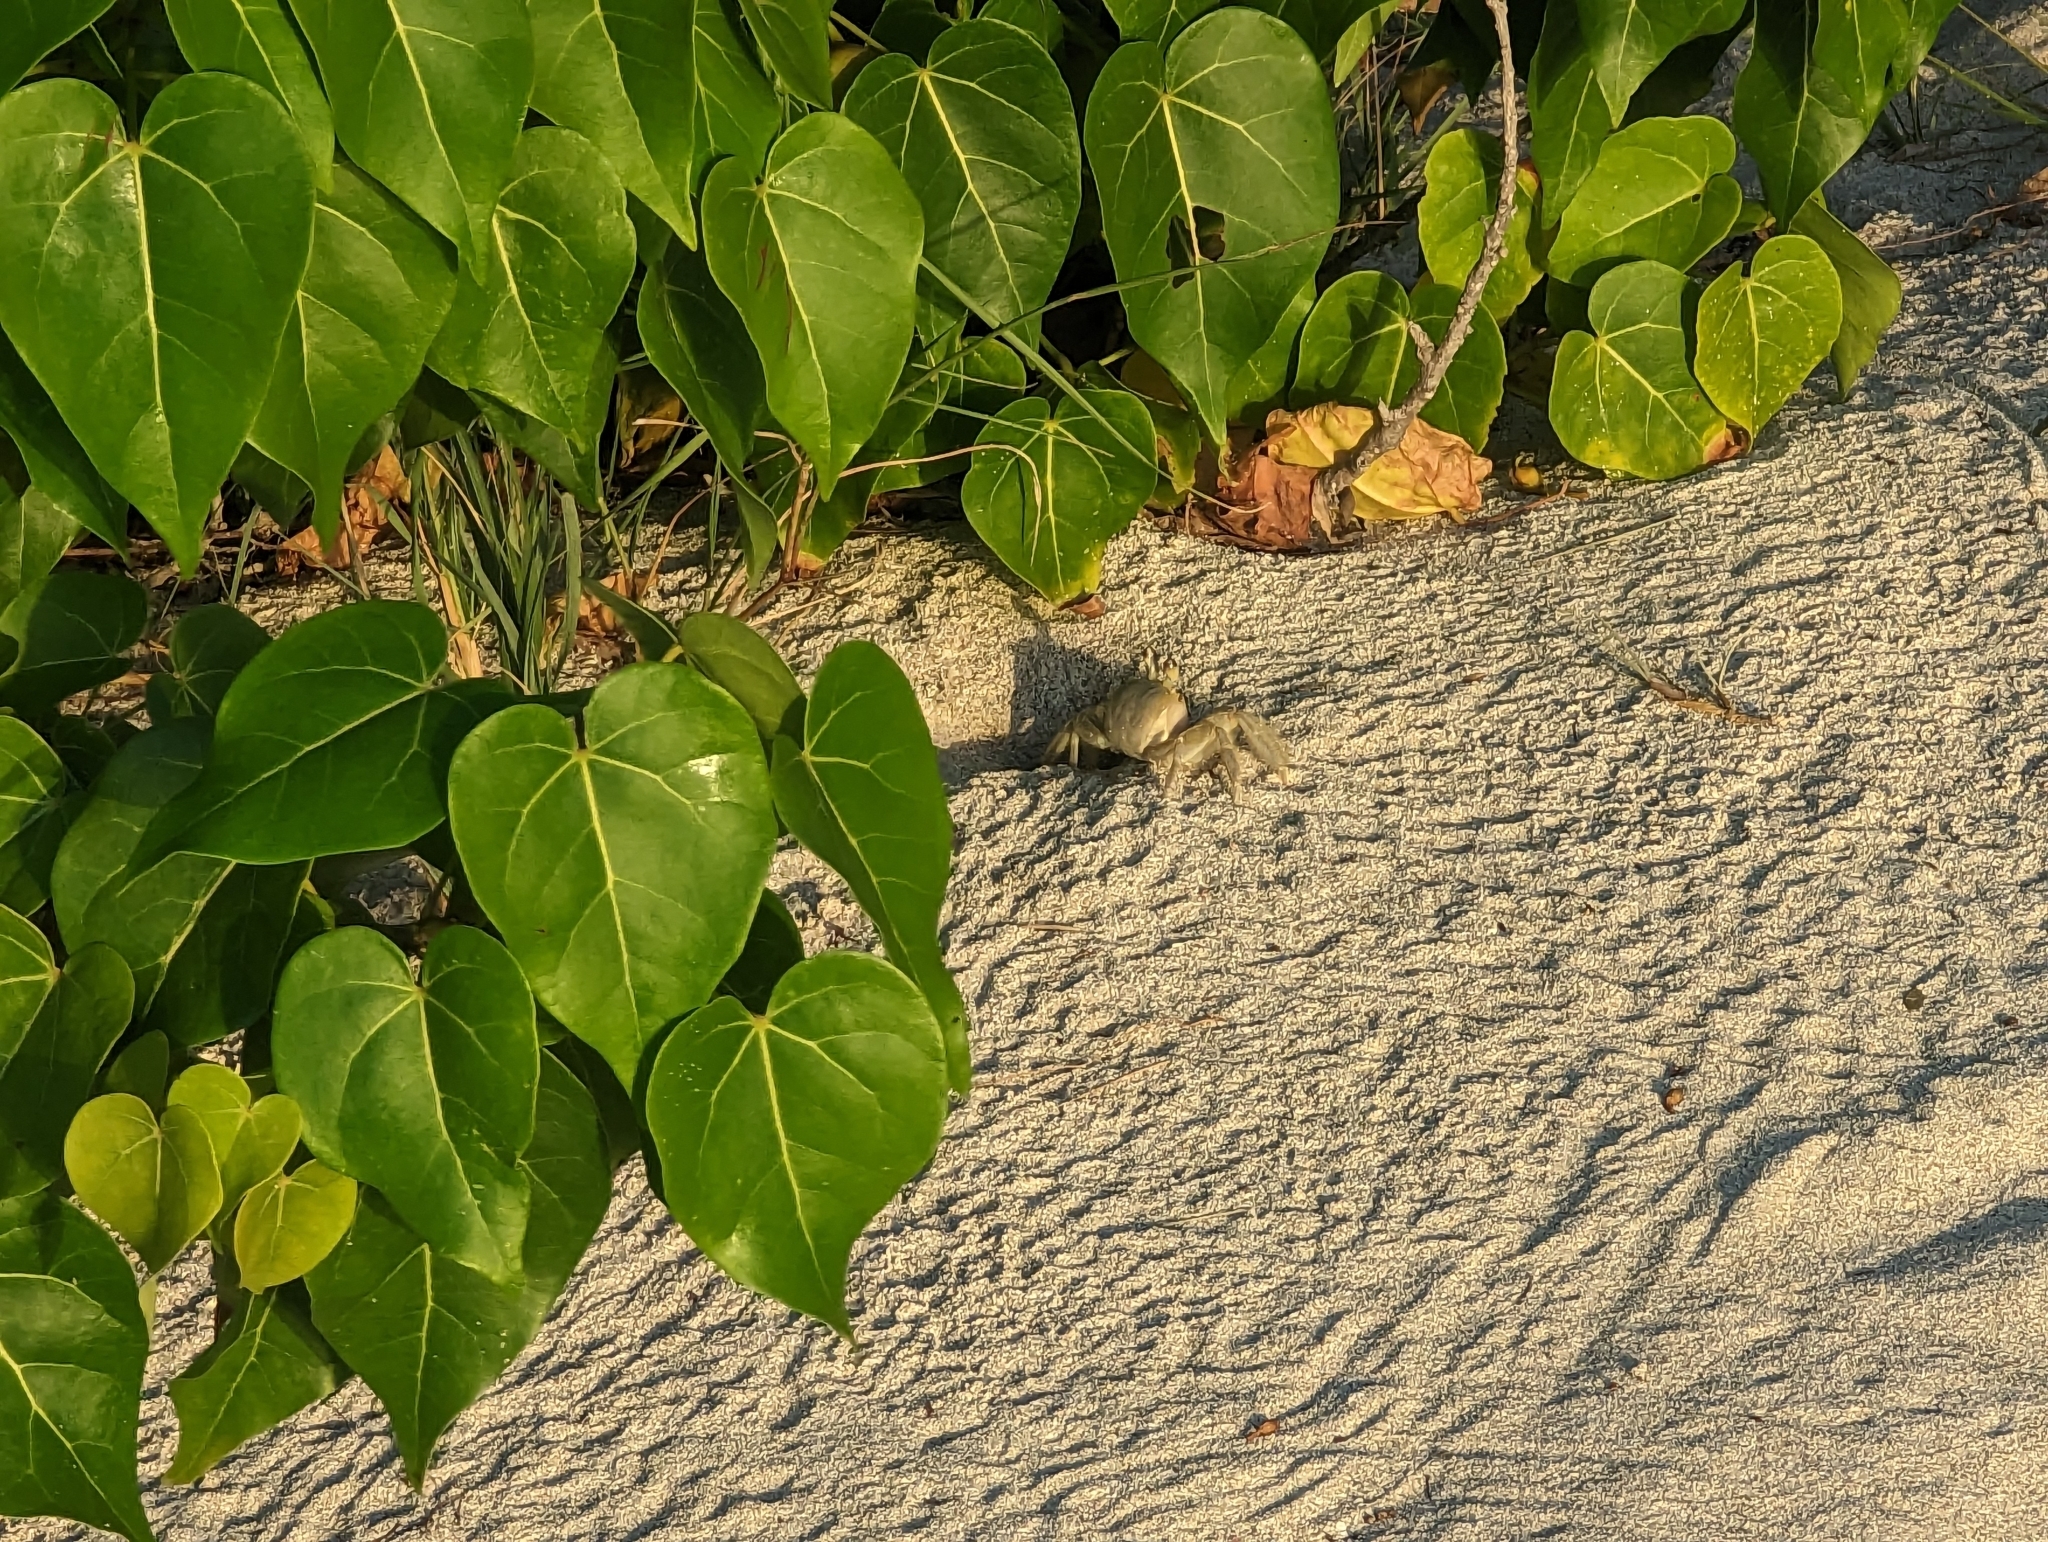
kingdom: Animalia
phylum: Arthropoda
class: Malacostraca
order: Decapoda
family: Ocypodidae
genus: Ocypode
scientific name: Ocypode quadrata
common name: Ghost crab
